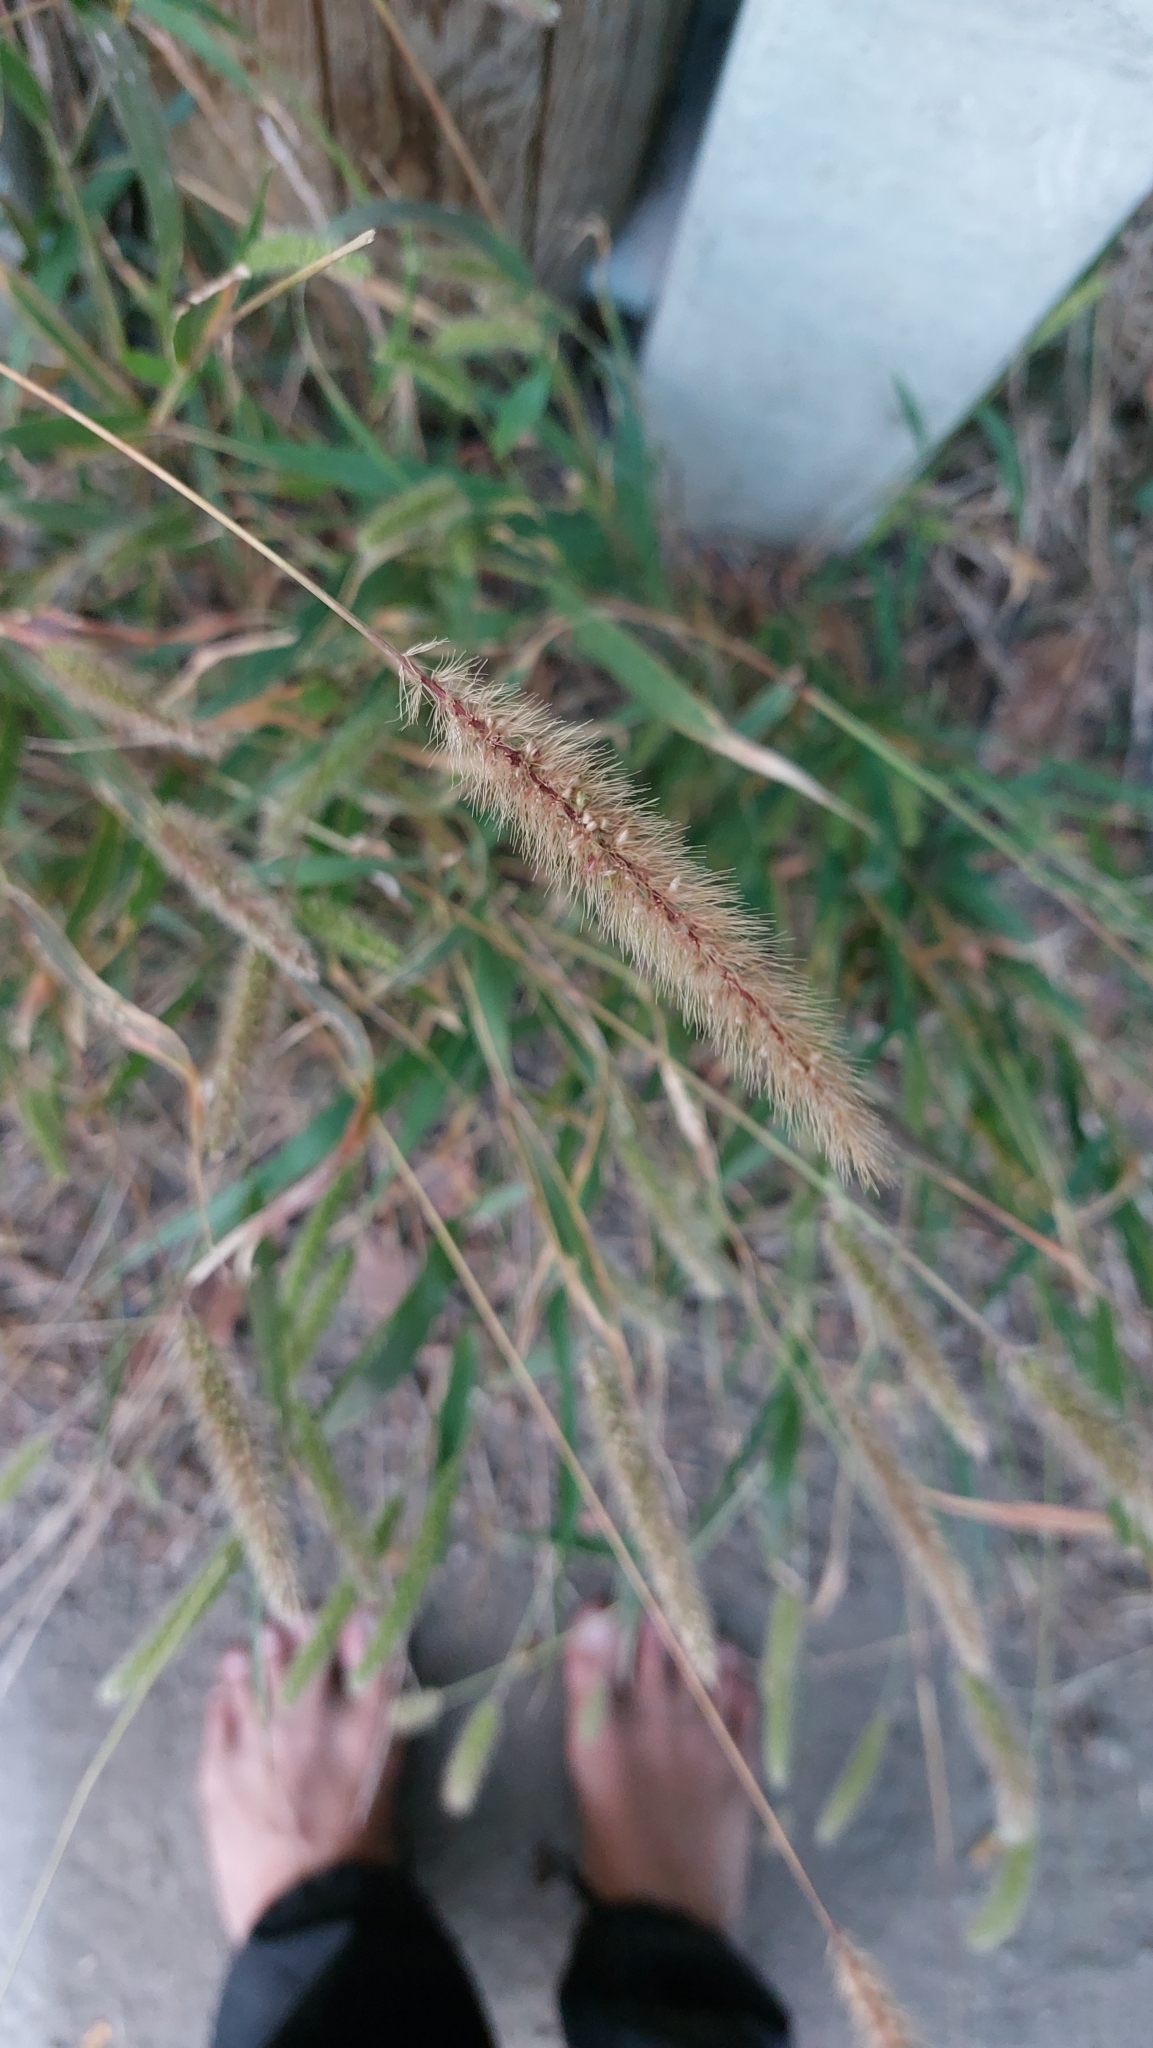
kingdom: Plantae
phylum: Tracheophyta
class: Liliopsida
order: Poales
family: Poaceae
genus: Setaria
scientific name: Setaria viridis
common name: Green bristlegrass
